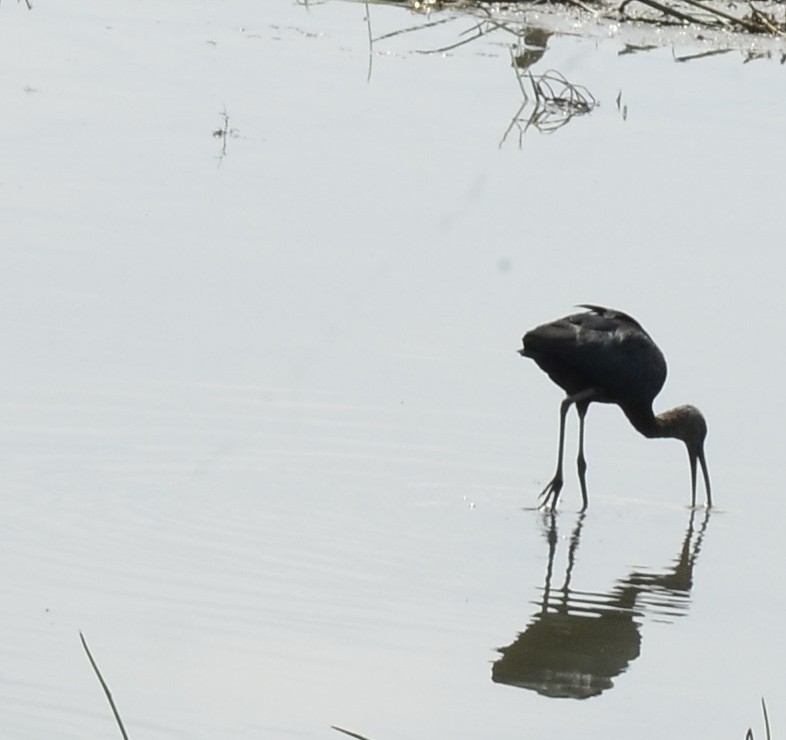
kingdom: Animalia
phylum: Chordata
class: Aves
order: Pelecaniformes
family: Threskiornithidae
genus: Plegadis
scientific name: Plegadis falcinellus
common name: Glossy ibis
